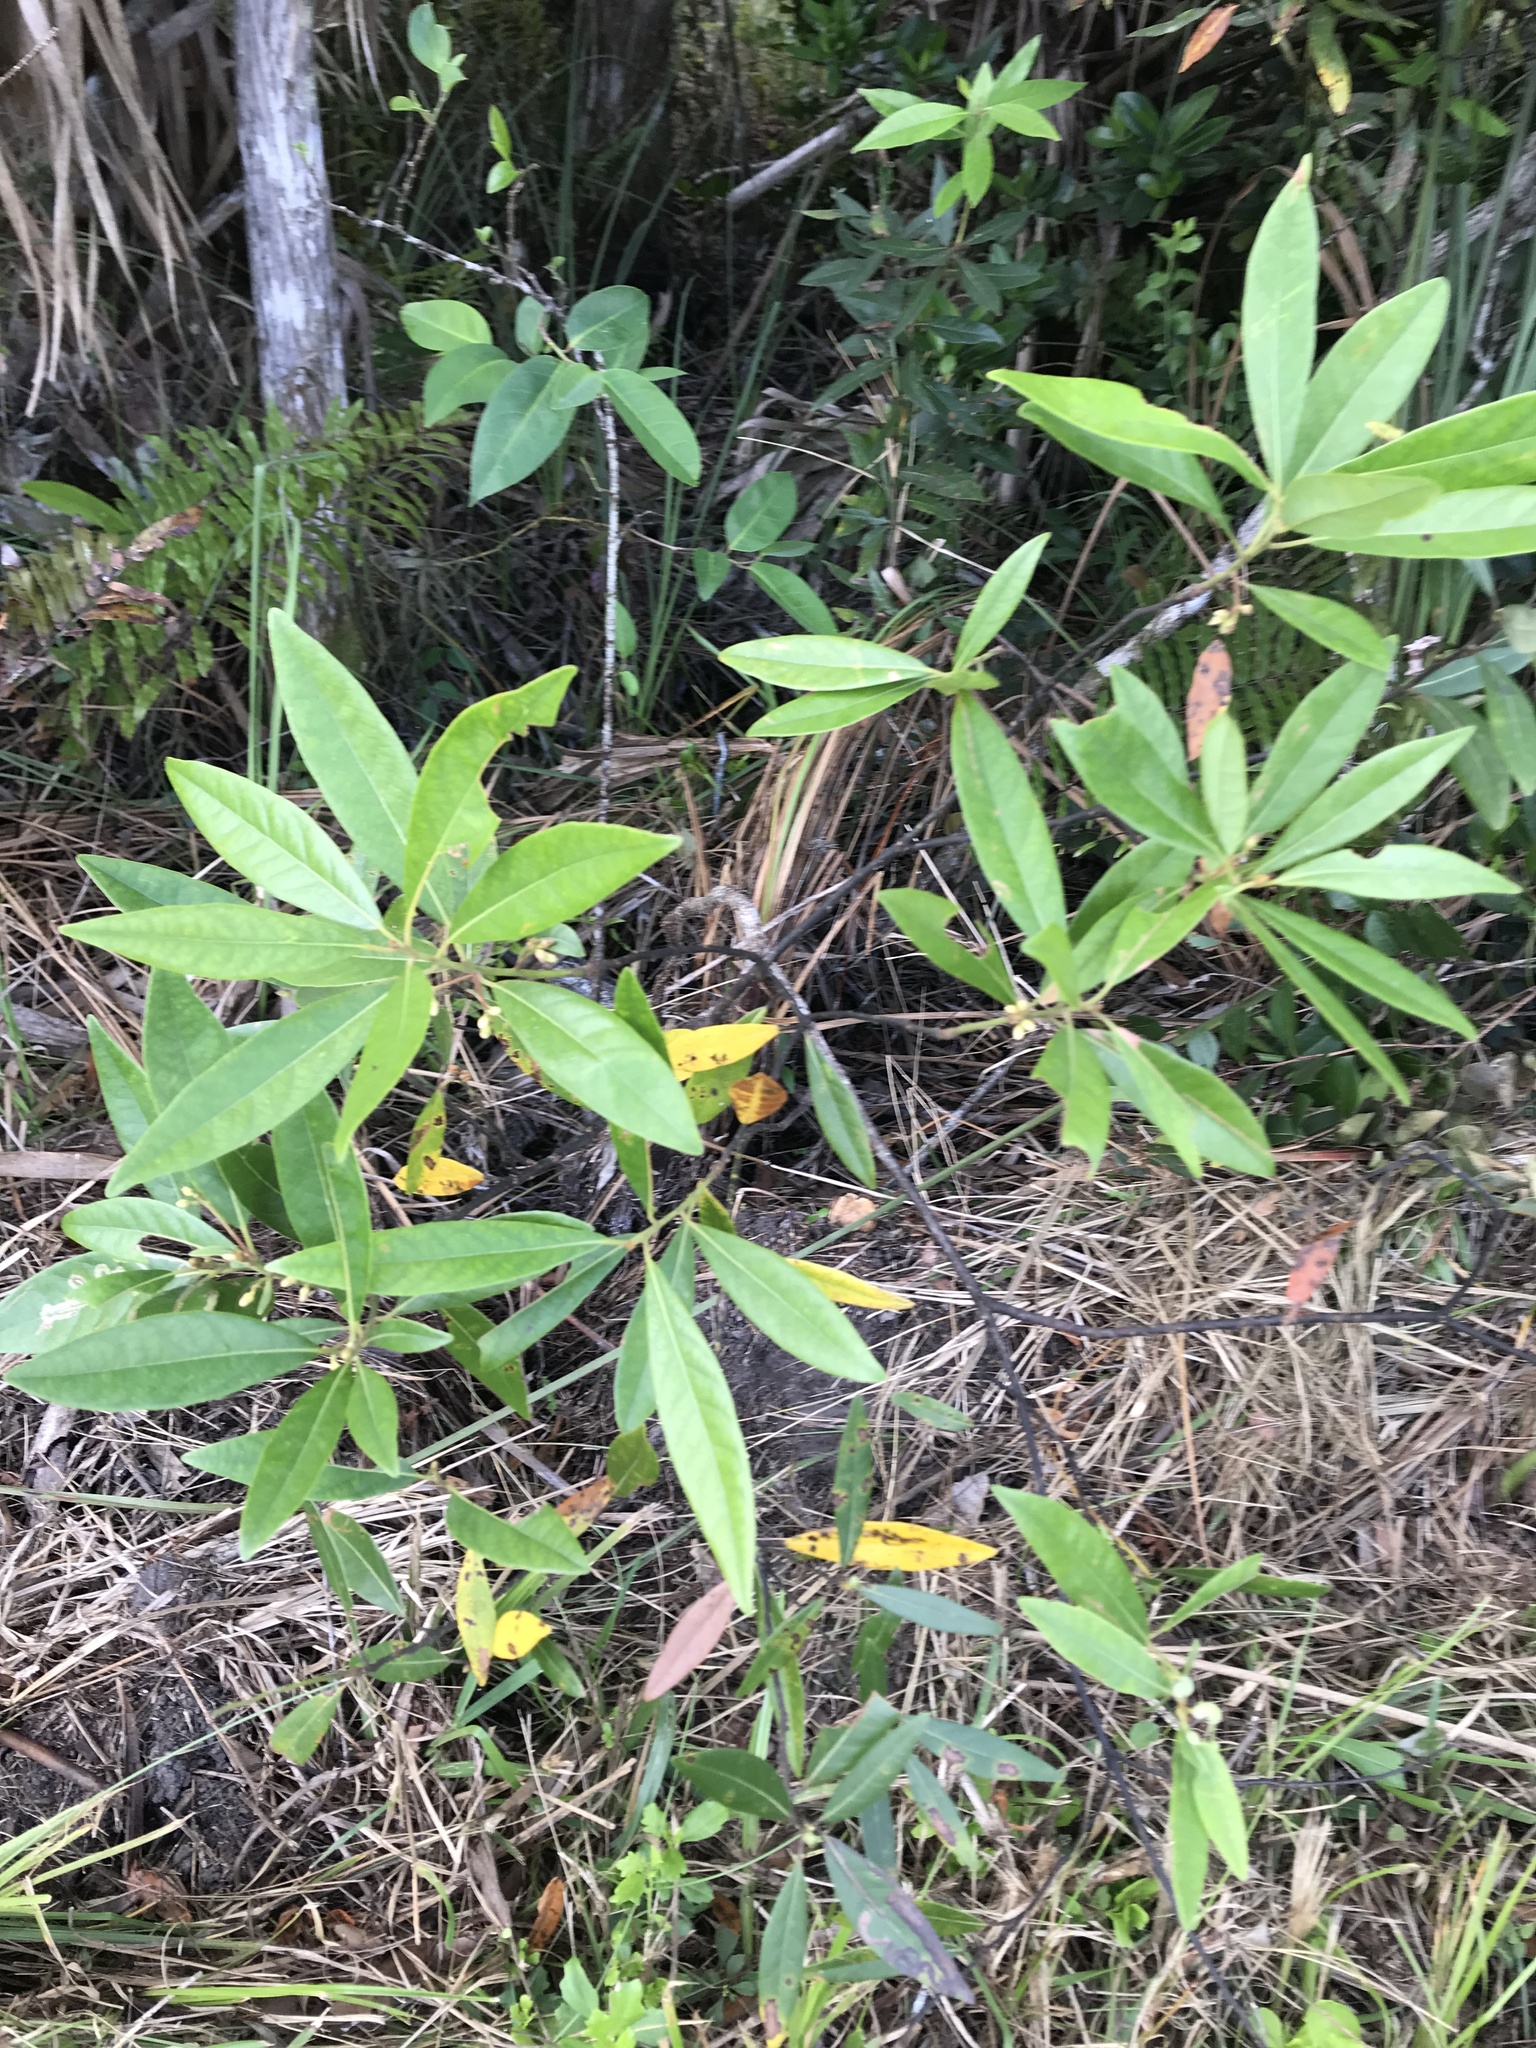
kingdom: Plantae
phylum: Tracheophyta
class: Magnoliopsida
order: Laurales
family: Lauraceae
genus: Persea
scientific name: Persea palustris
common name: Swampbay
